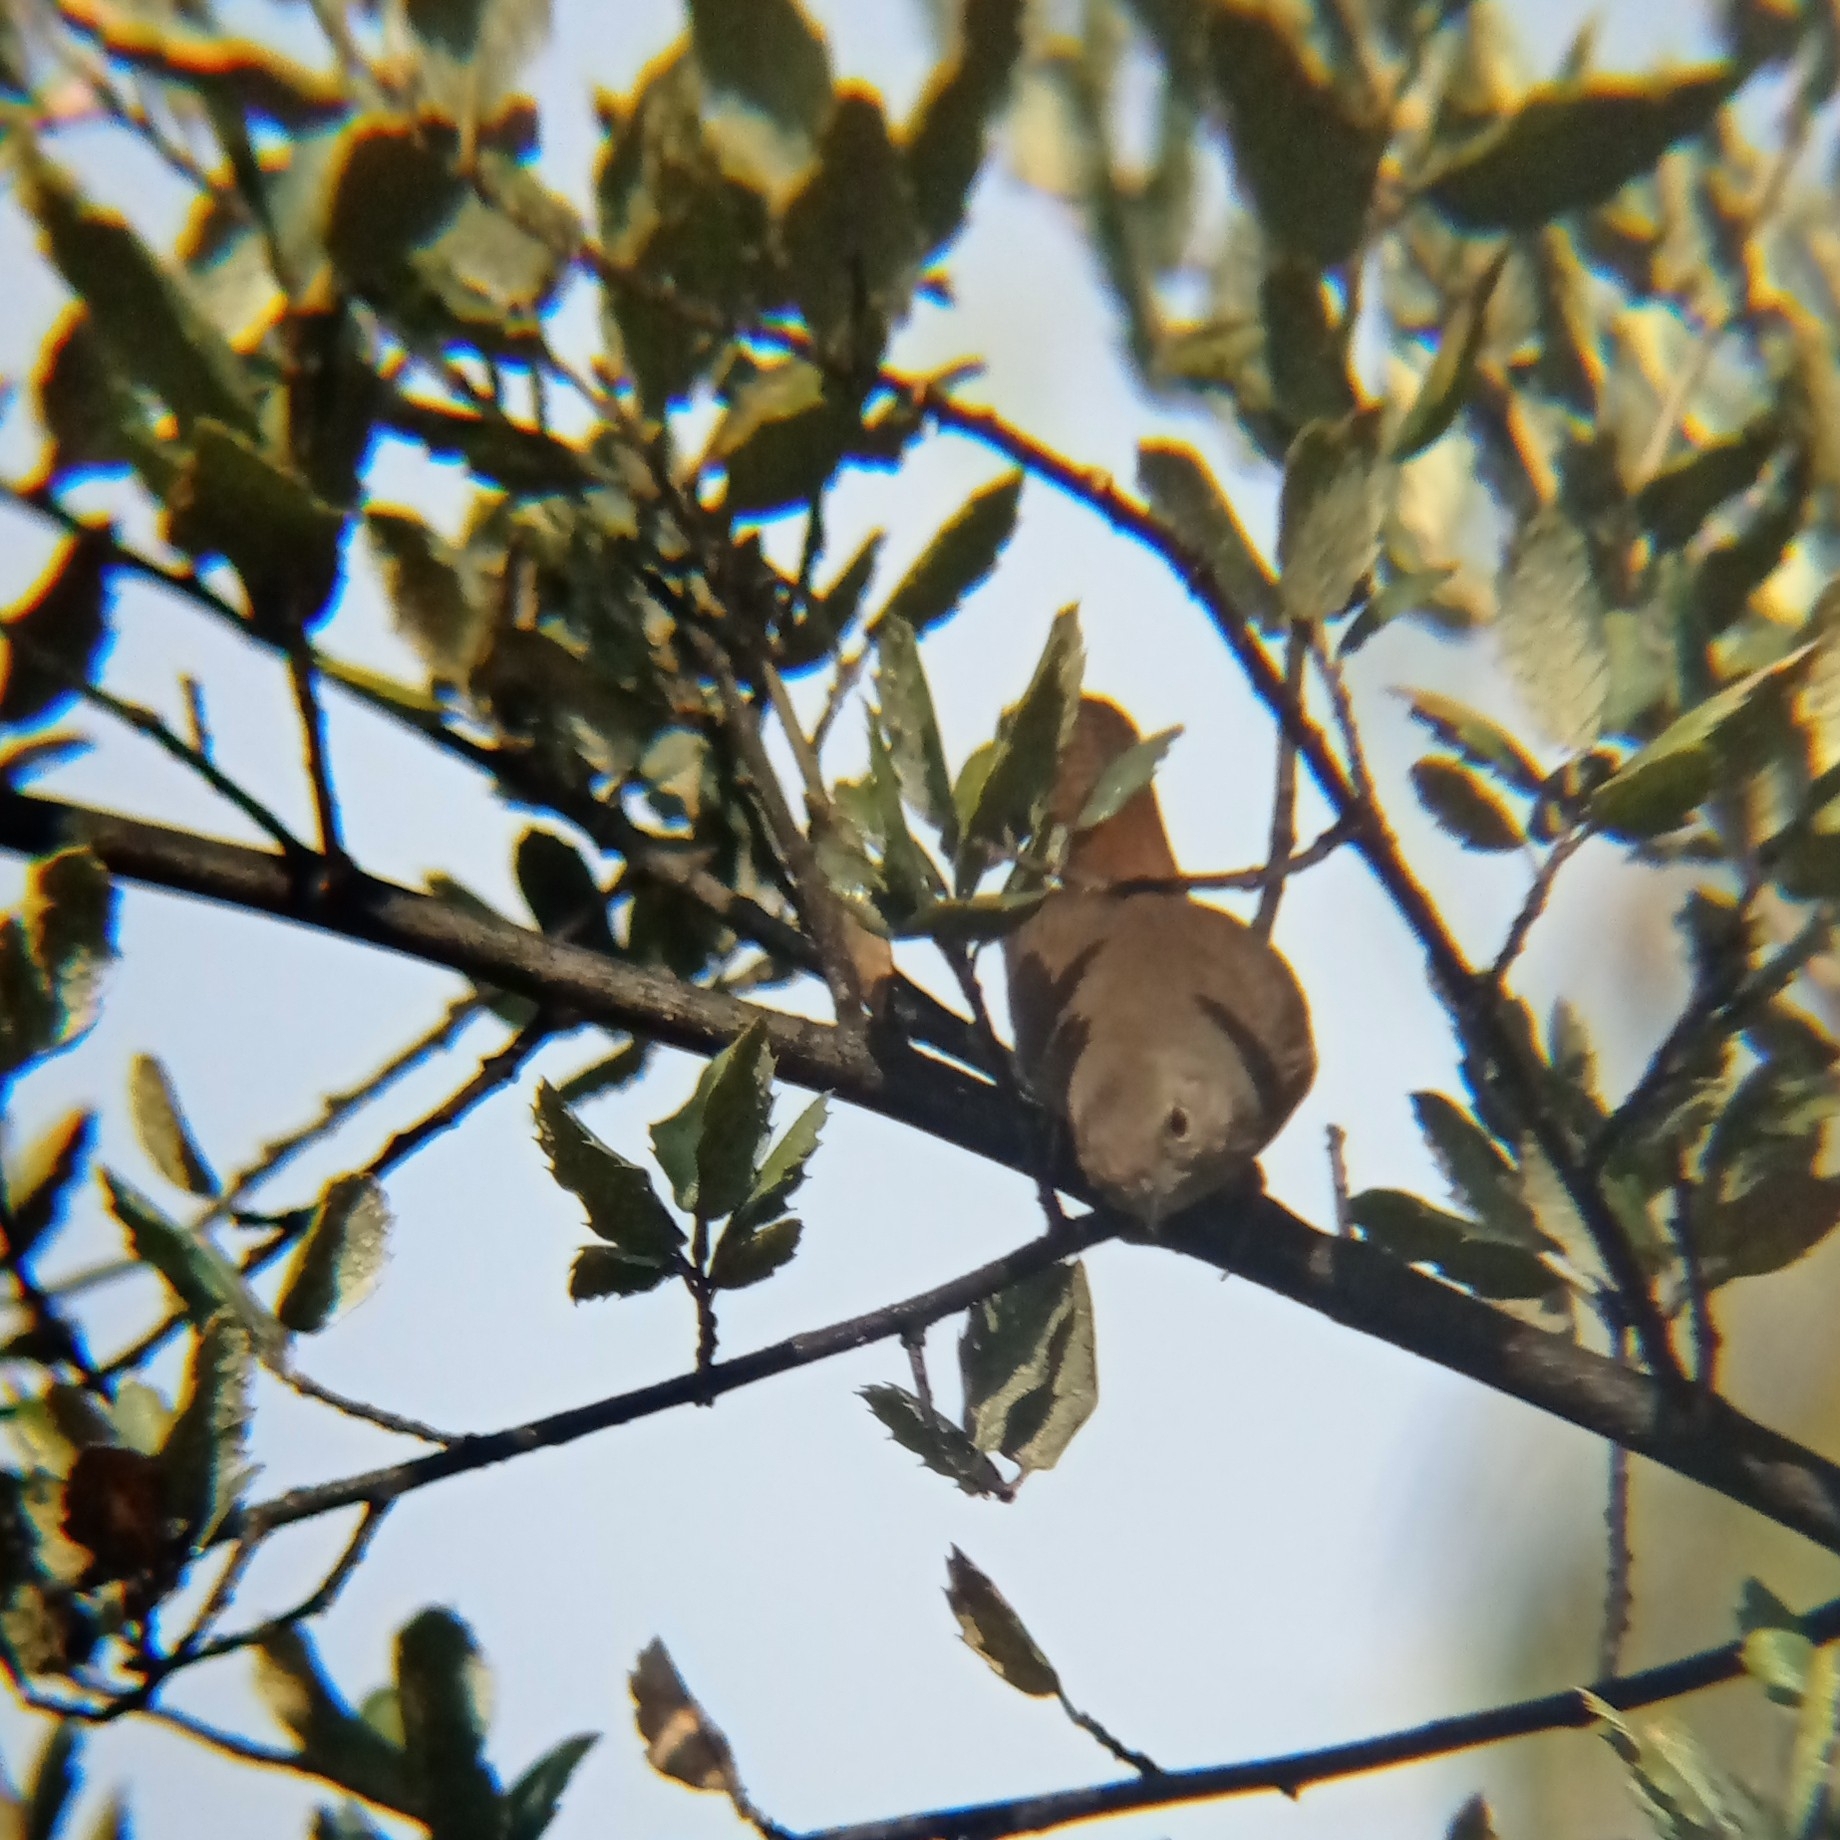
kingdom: Animalia
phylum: Chordata
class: Aves
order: Passeriformes
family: Troglodytidae
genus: Troglodytes
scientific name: Troglodytes aedon
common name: House wren
